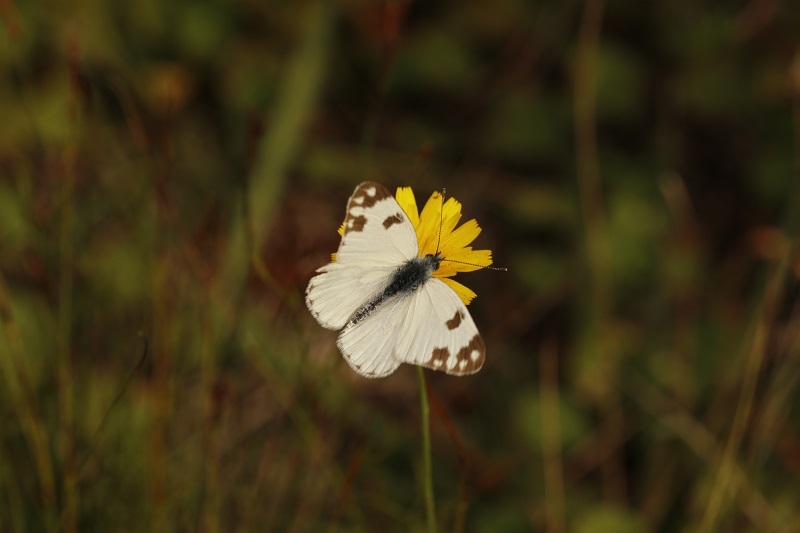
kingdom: Animalia
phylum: Arthropoda
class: Insecta
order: Lepidoptera
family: Pieridae
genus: Pontia
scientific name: Pontia helice
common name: Meadow white
